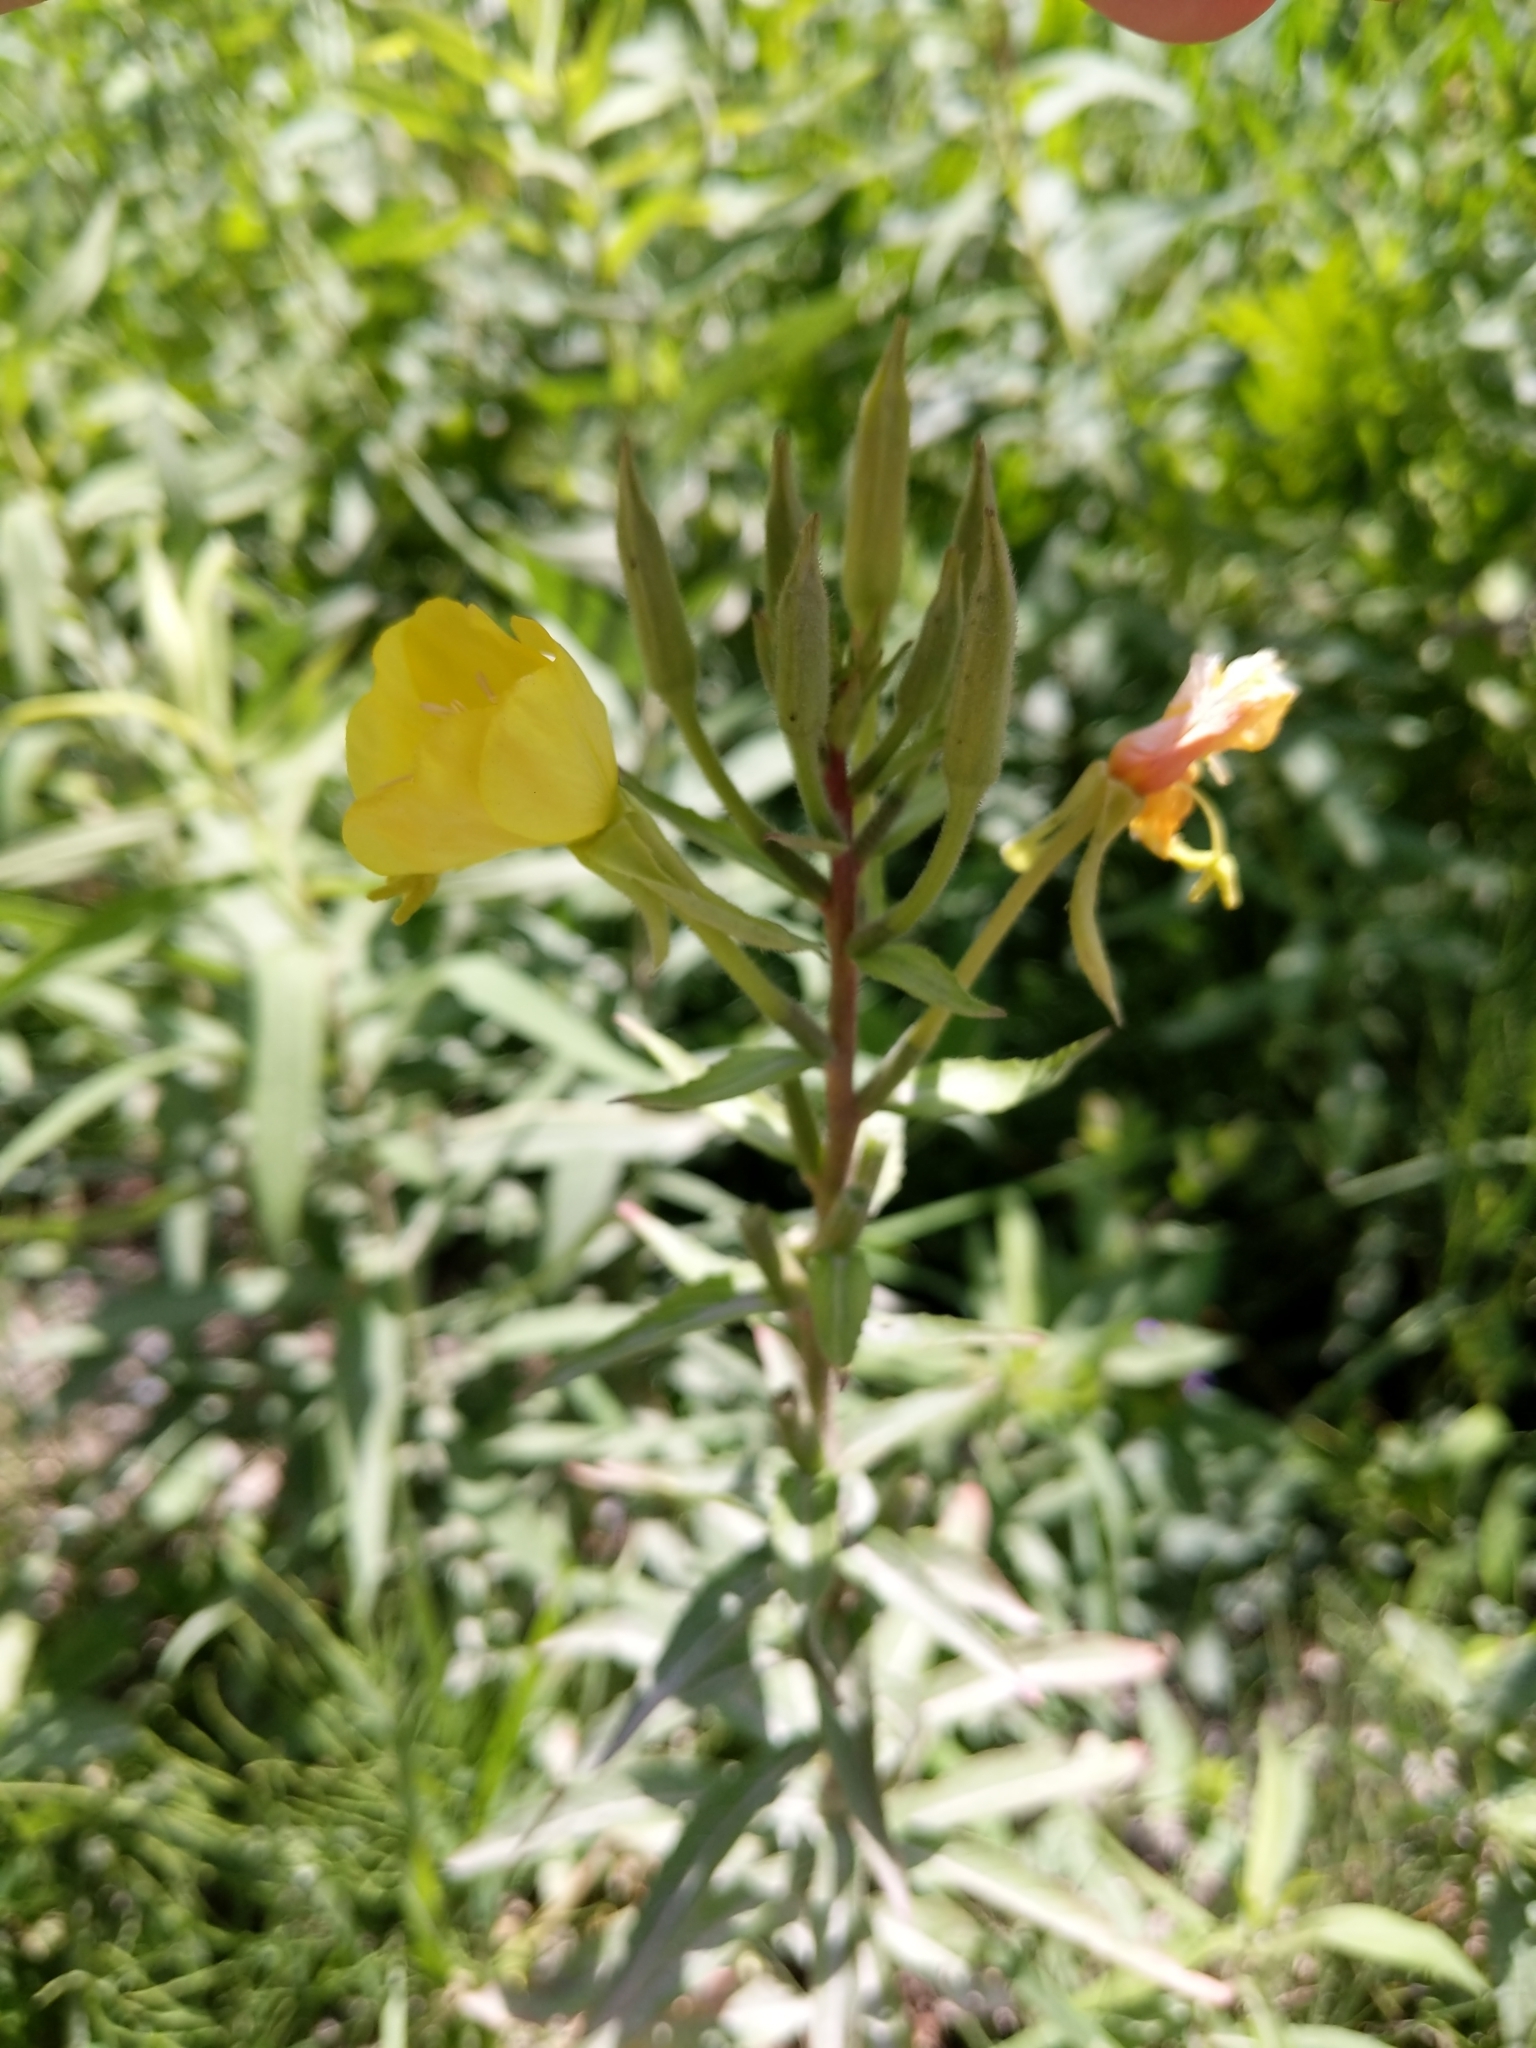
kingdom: Plantae
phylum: Tracheophyta
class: Magnoliopsida
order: Myrtales
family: Onagraceae
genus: Oenothera
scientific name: Oenothera biennis
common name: Common evening-primrose
